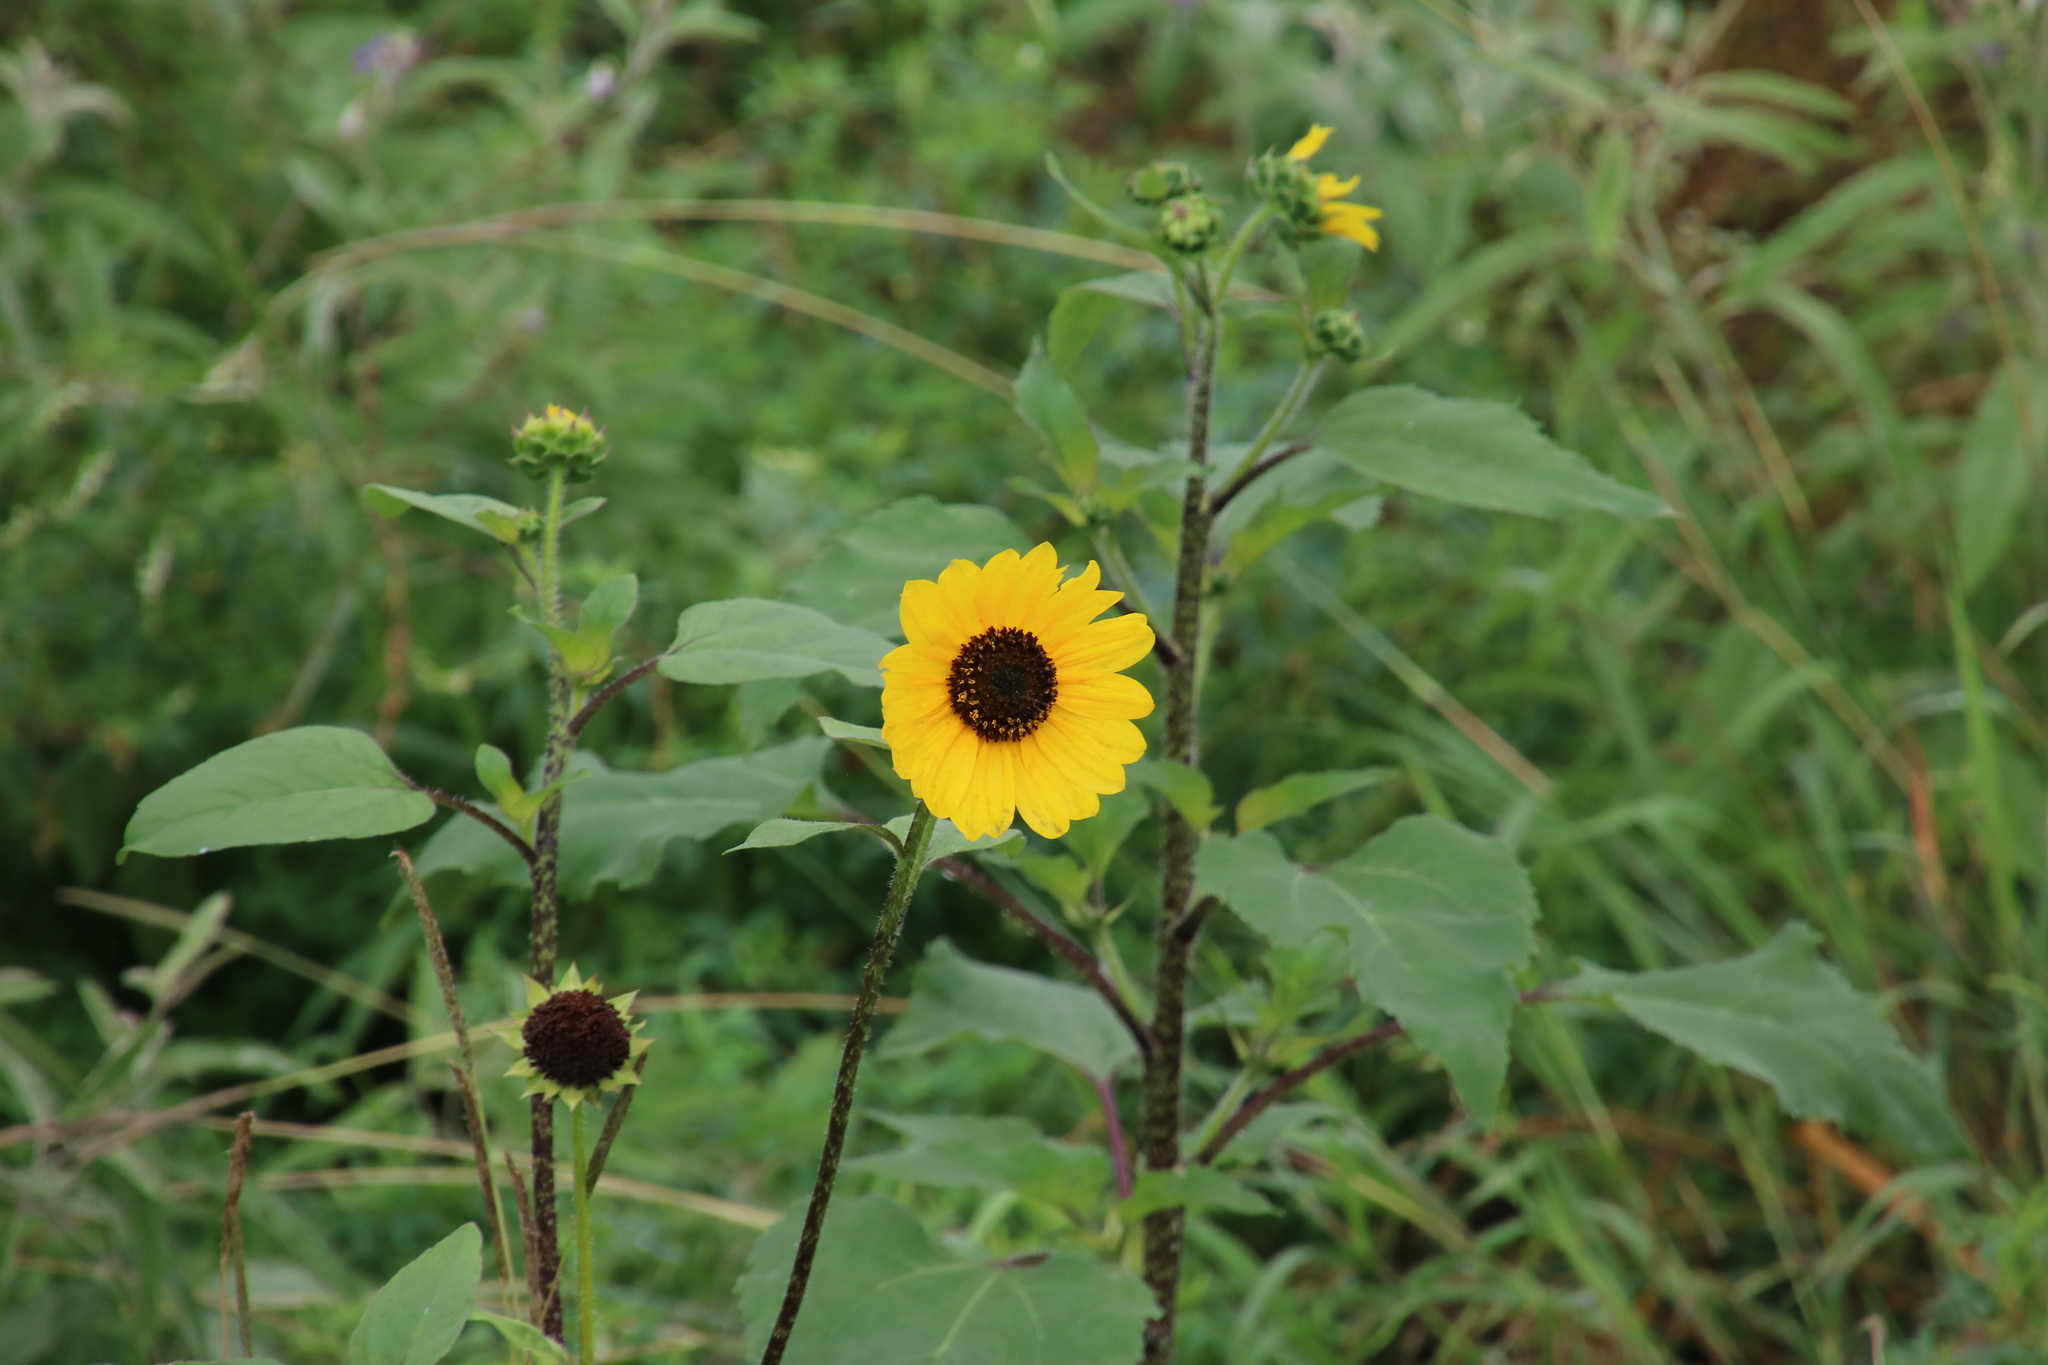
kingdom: Plantae
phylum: Tracheophyta
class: Magnoliopsida
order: Asterales
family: Asteraceae
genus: Helianthus
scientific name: Helianthus annuus
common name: Sunflower
